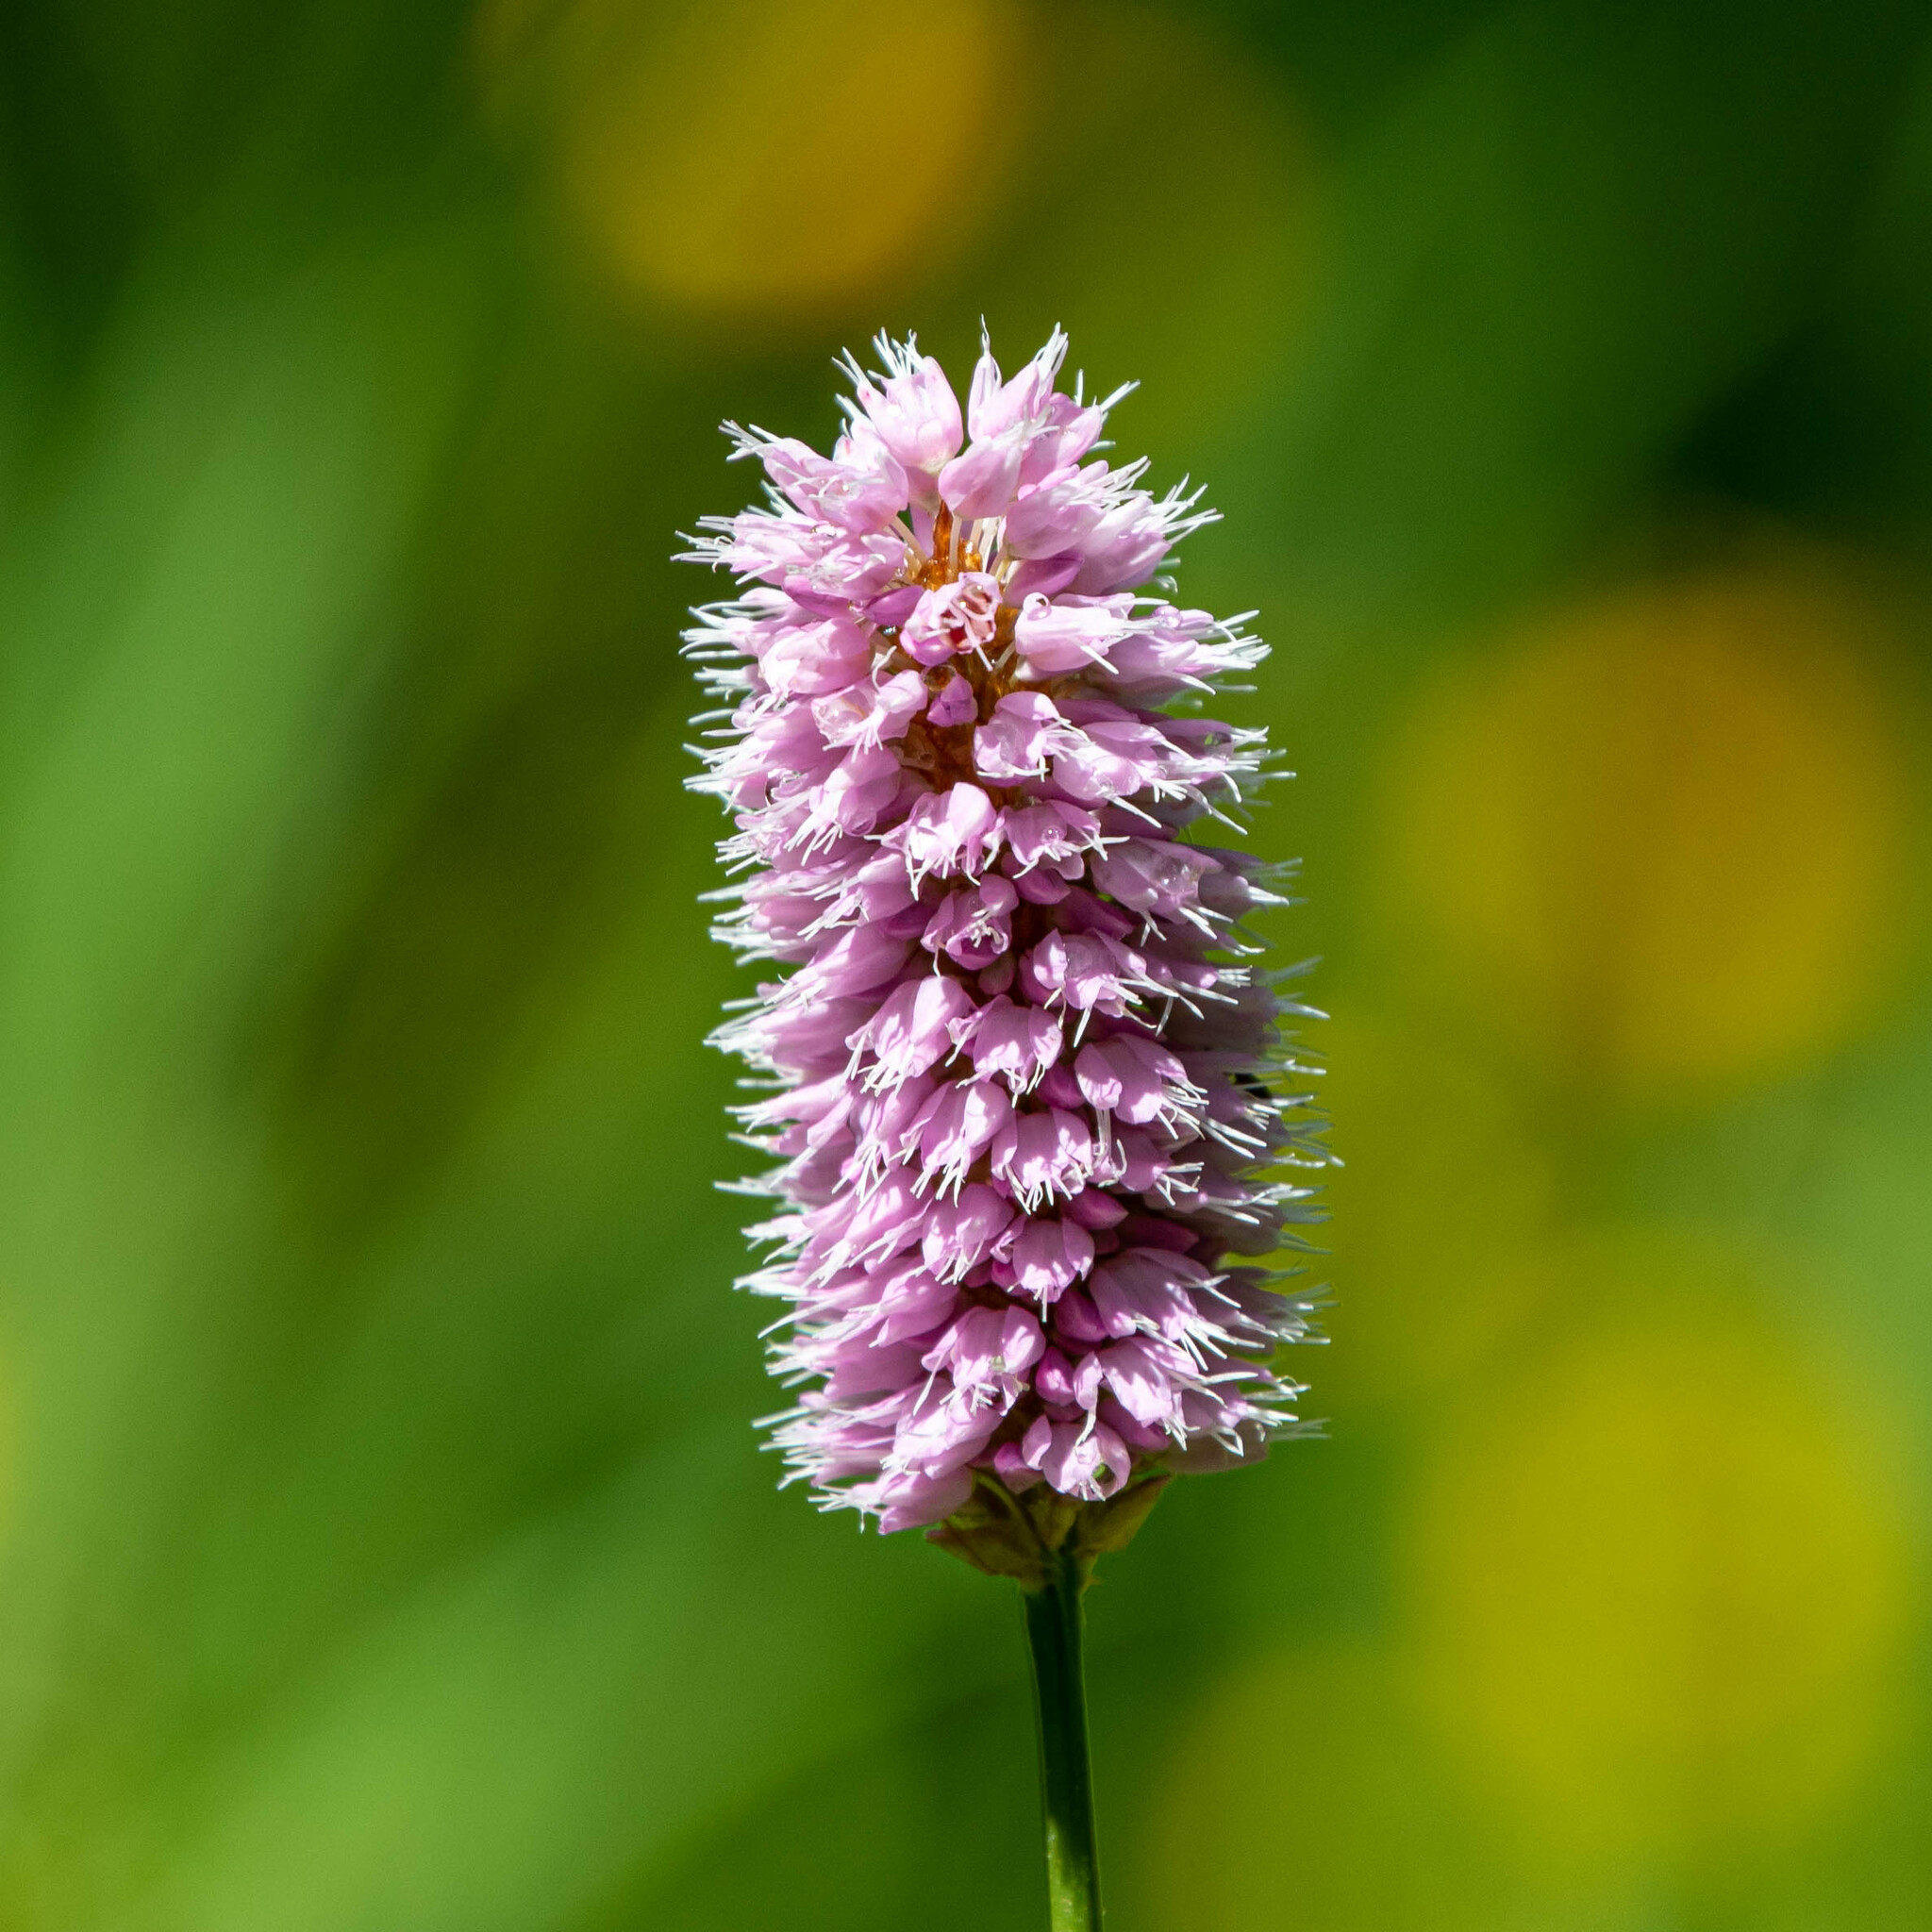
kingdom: Plantae
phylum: Tracheophyta
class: Magnoliopsida
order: Caryophyllales
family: Polygonaceae
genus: Bistorta
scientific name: Bistorta officinalis
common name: Common bistort
